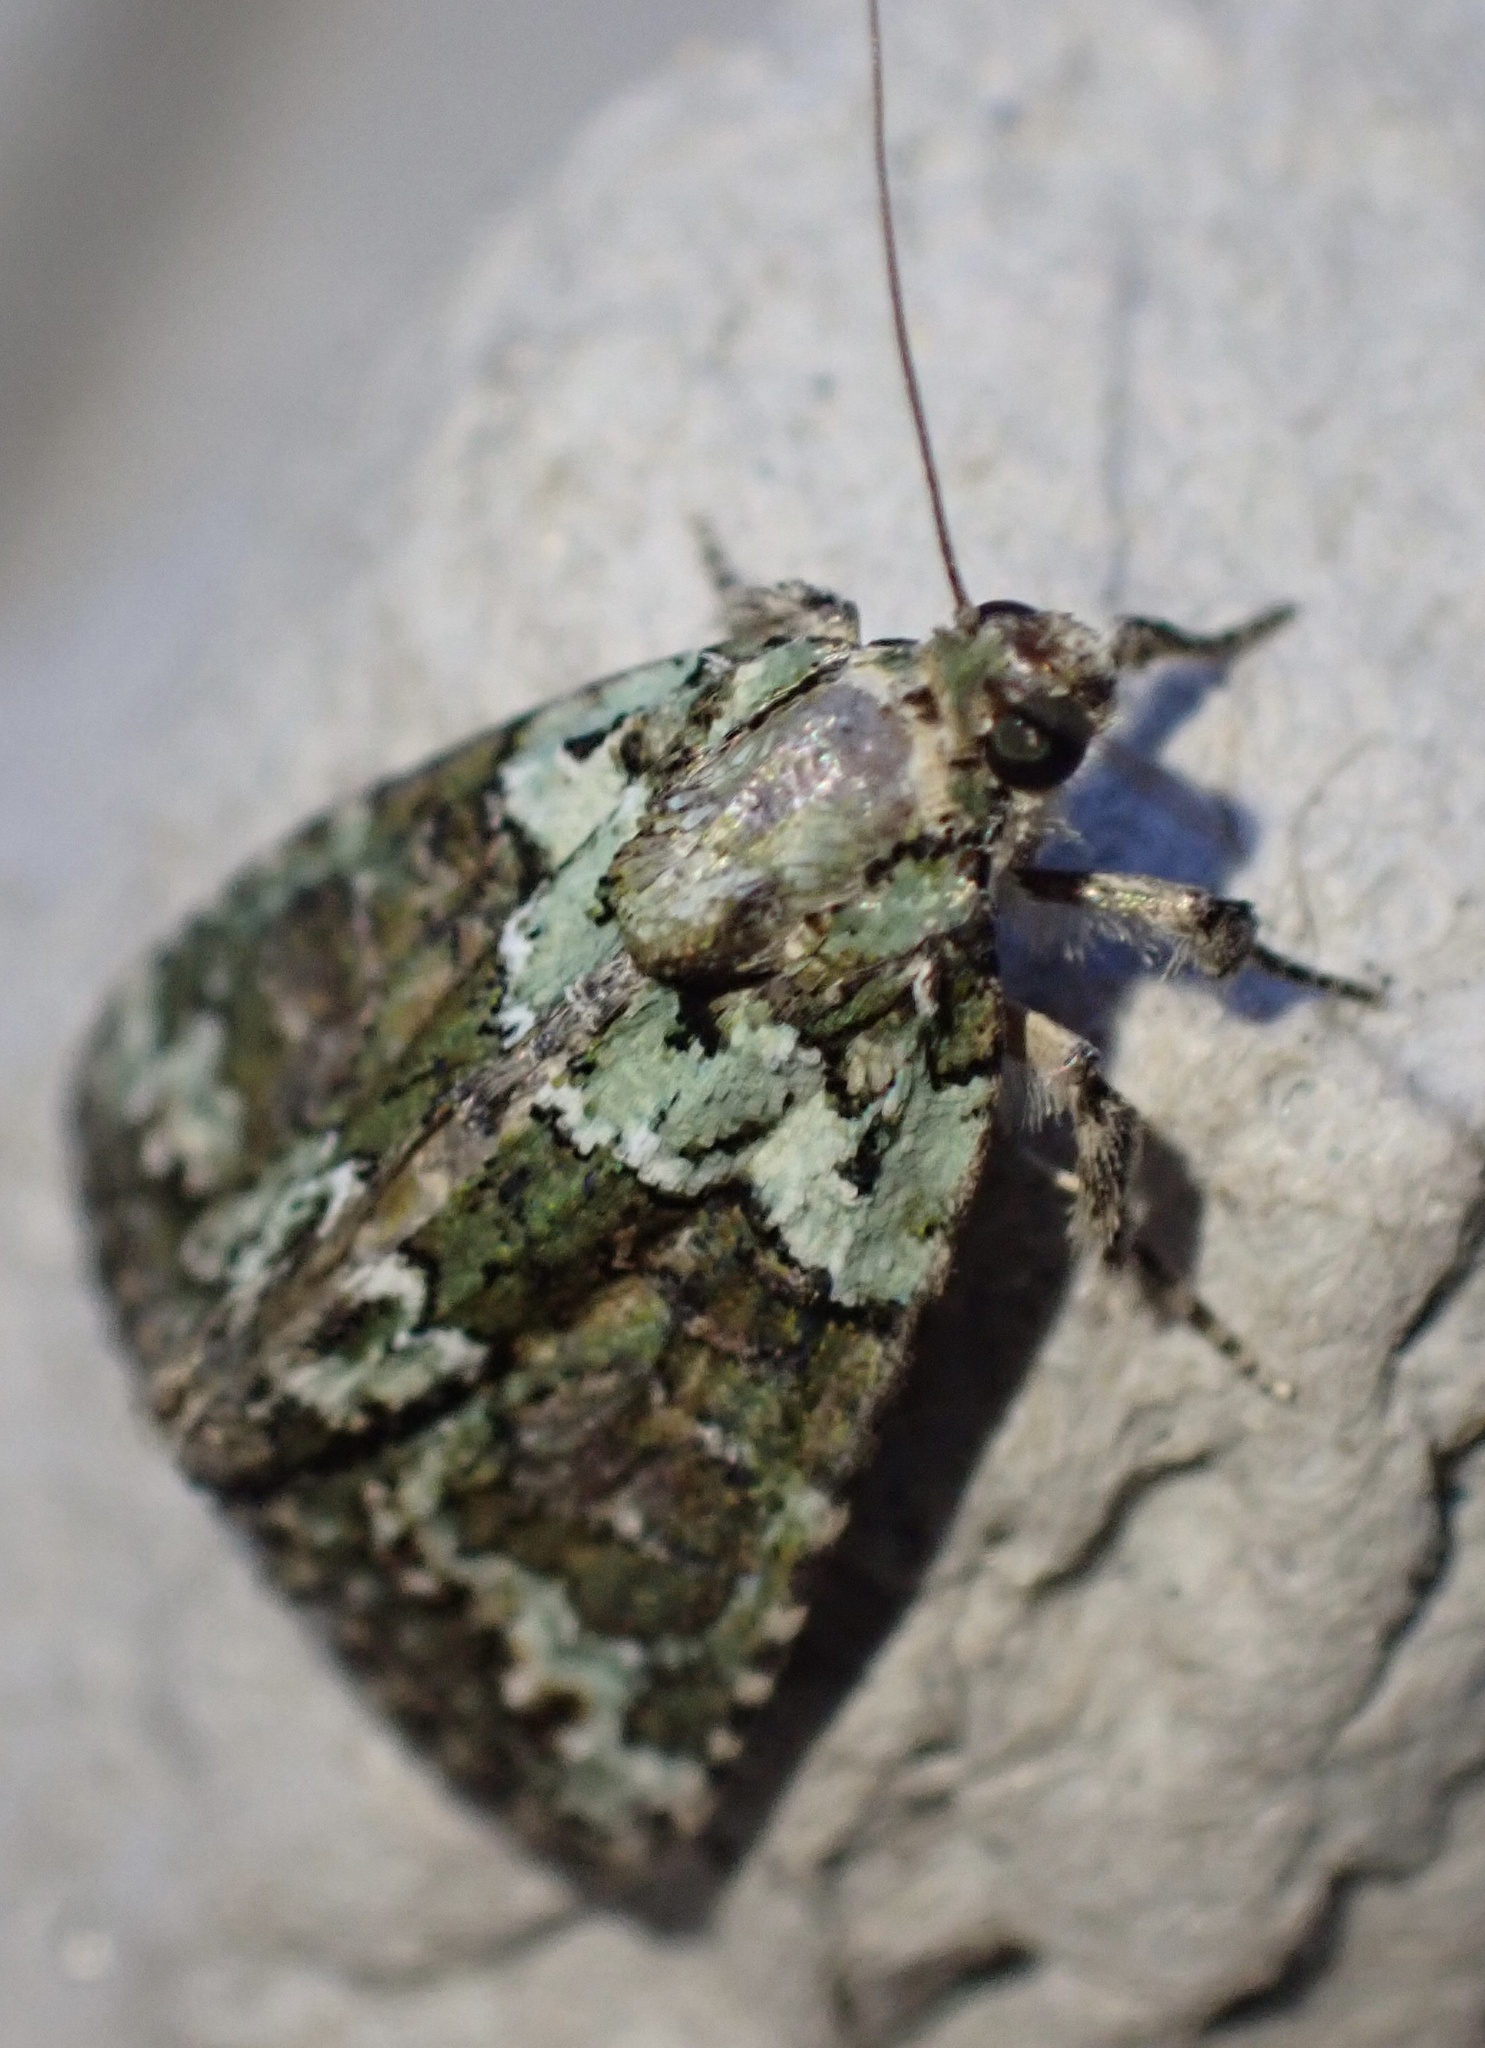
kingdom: Animalia
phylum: Arthropoda
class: Insecta
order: Lepidoptera
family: Noctuidae
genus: Cryphia
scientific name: Cryphia algae
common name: Tree-lichen beauty
